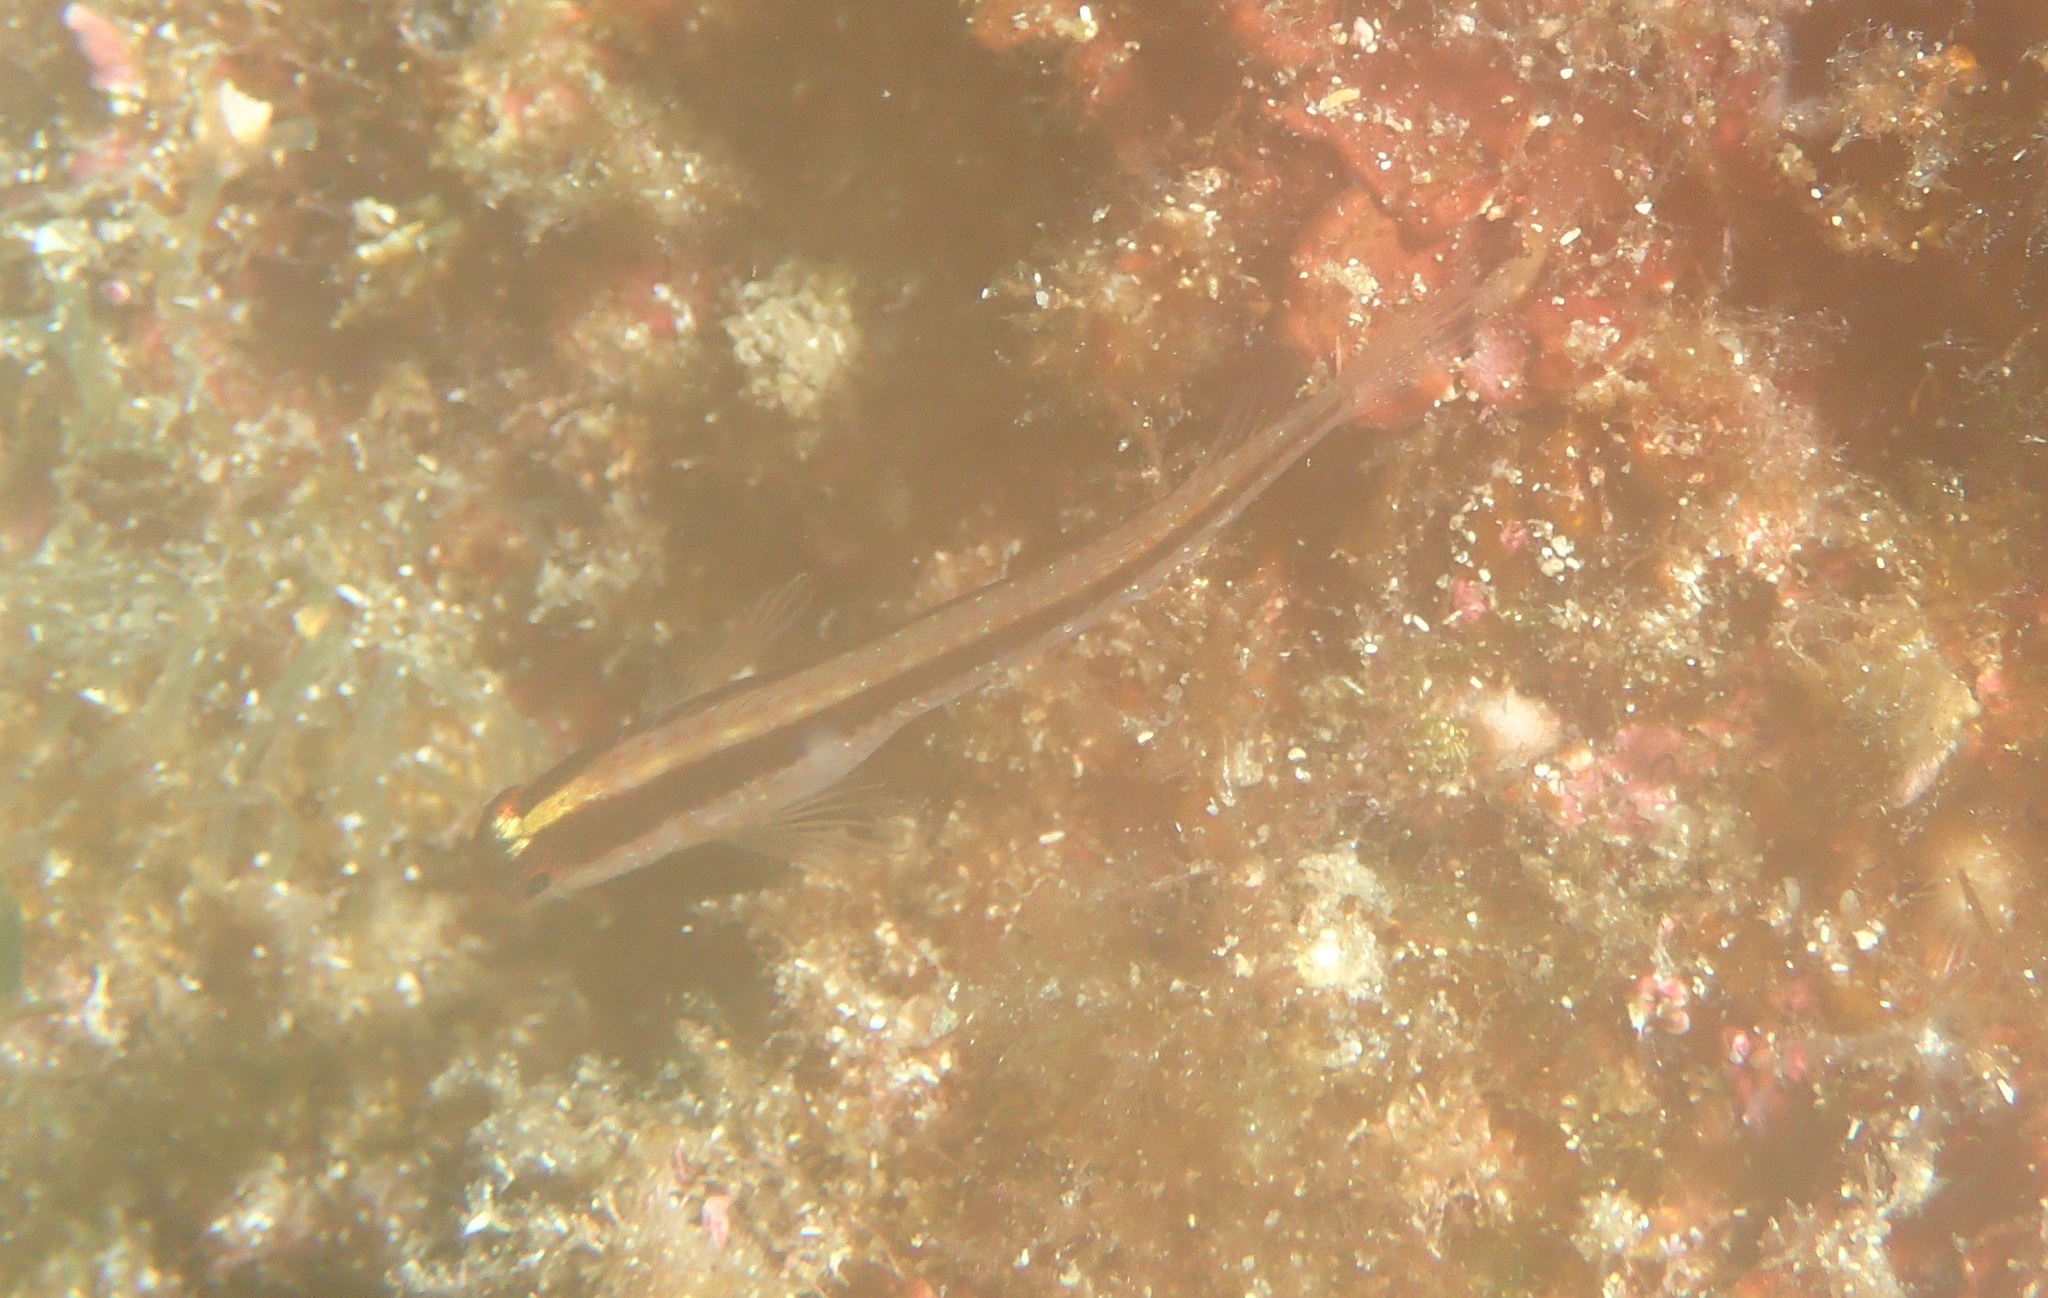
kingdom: Animalia
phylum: Chordata
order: Perciformes
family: Blenniidae
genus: Parablennius
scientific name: Parablennius rouxi
